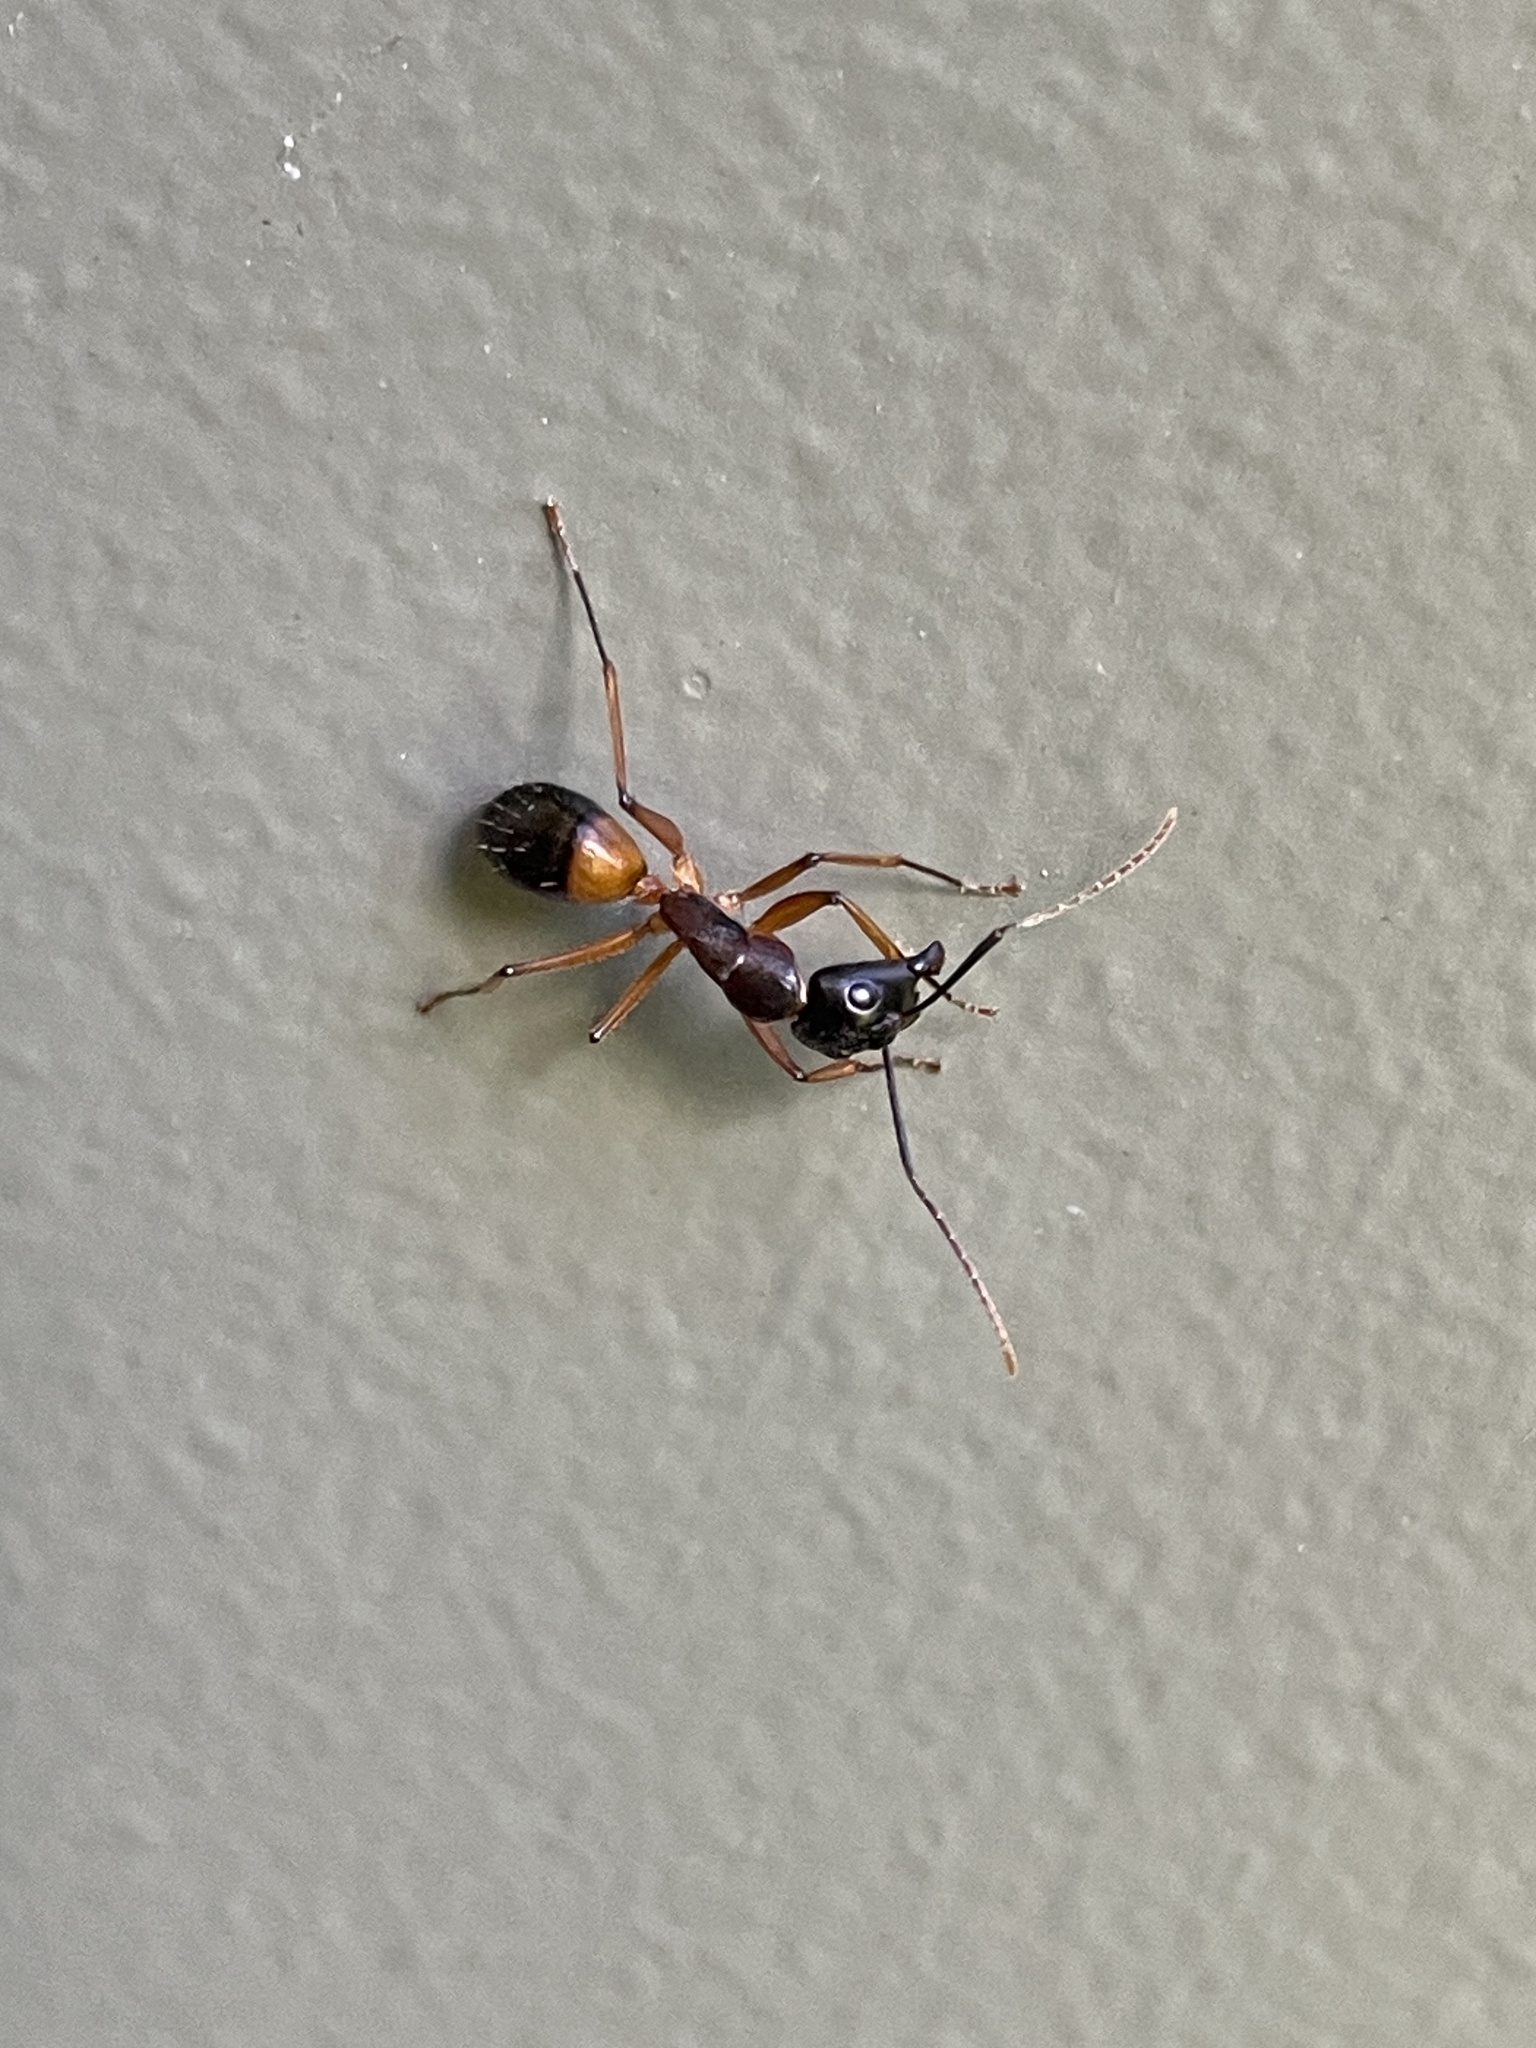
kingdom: Animalia
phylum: Arthropoda
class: Insecta
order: Hymenoptera
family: Formicidae
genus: Camponotus
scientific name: Camponotus consobrinus
